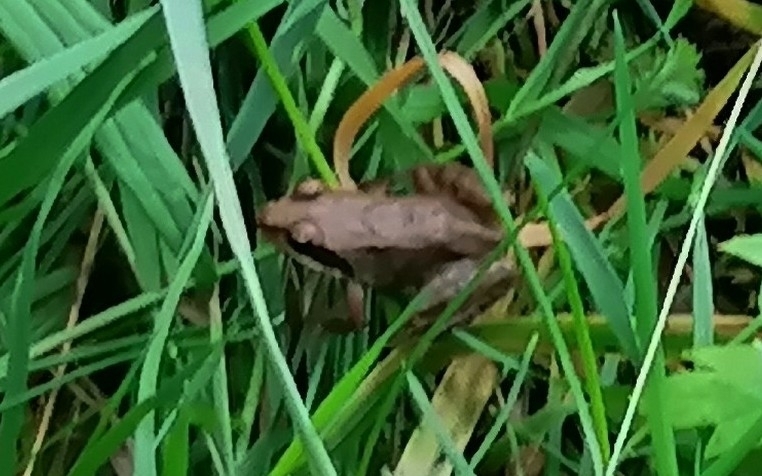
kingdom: Animalia
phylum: Chordata
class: Amphibia
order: Anura
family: Ranidae
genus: Rana
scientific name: Rana arvalis
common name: Moor frog
